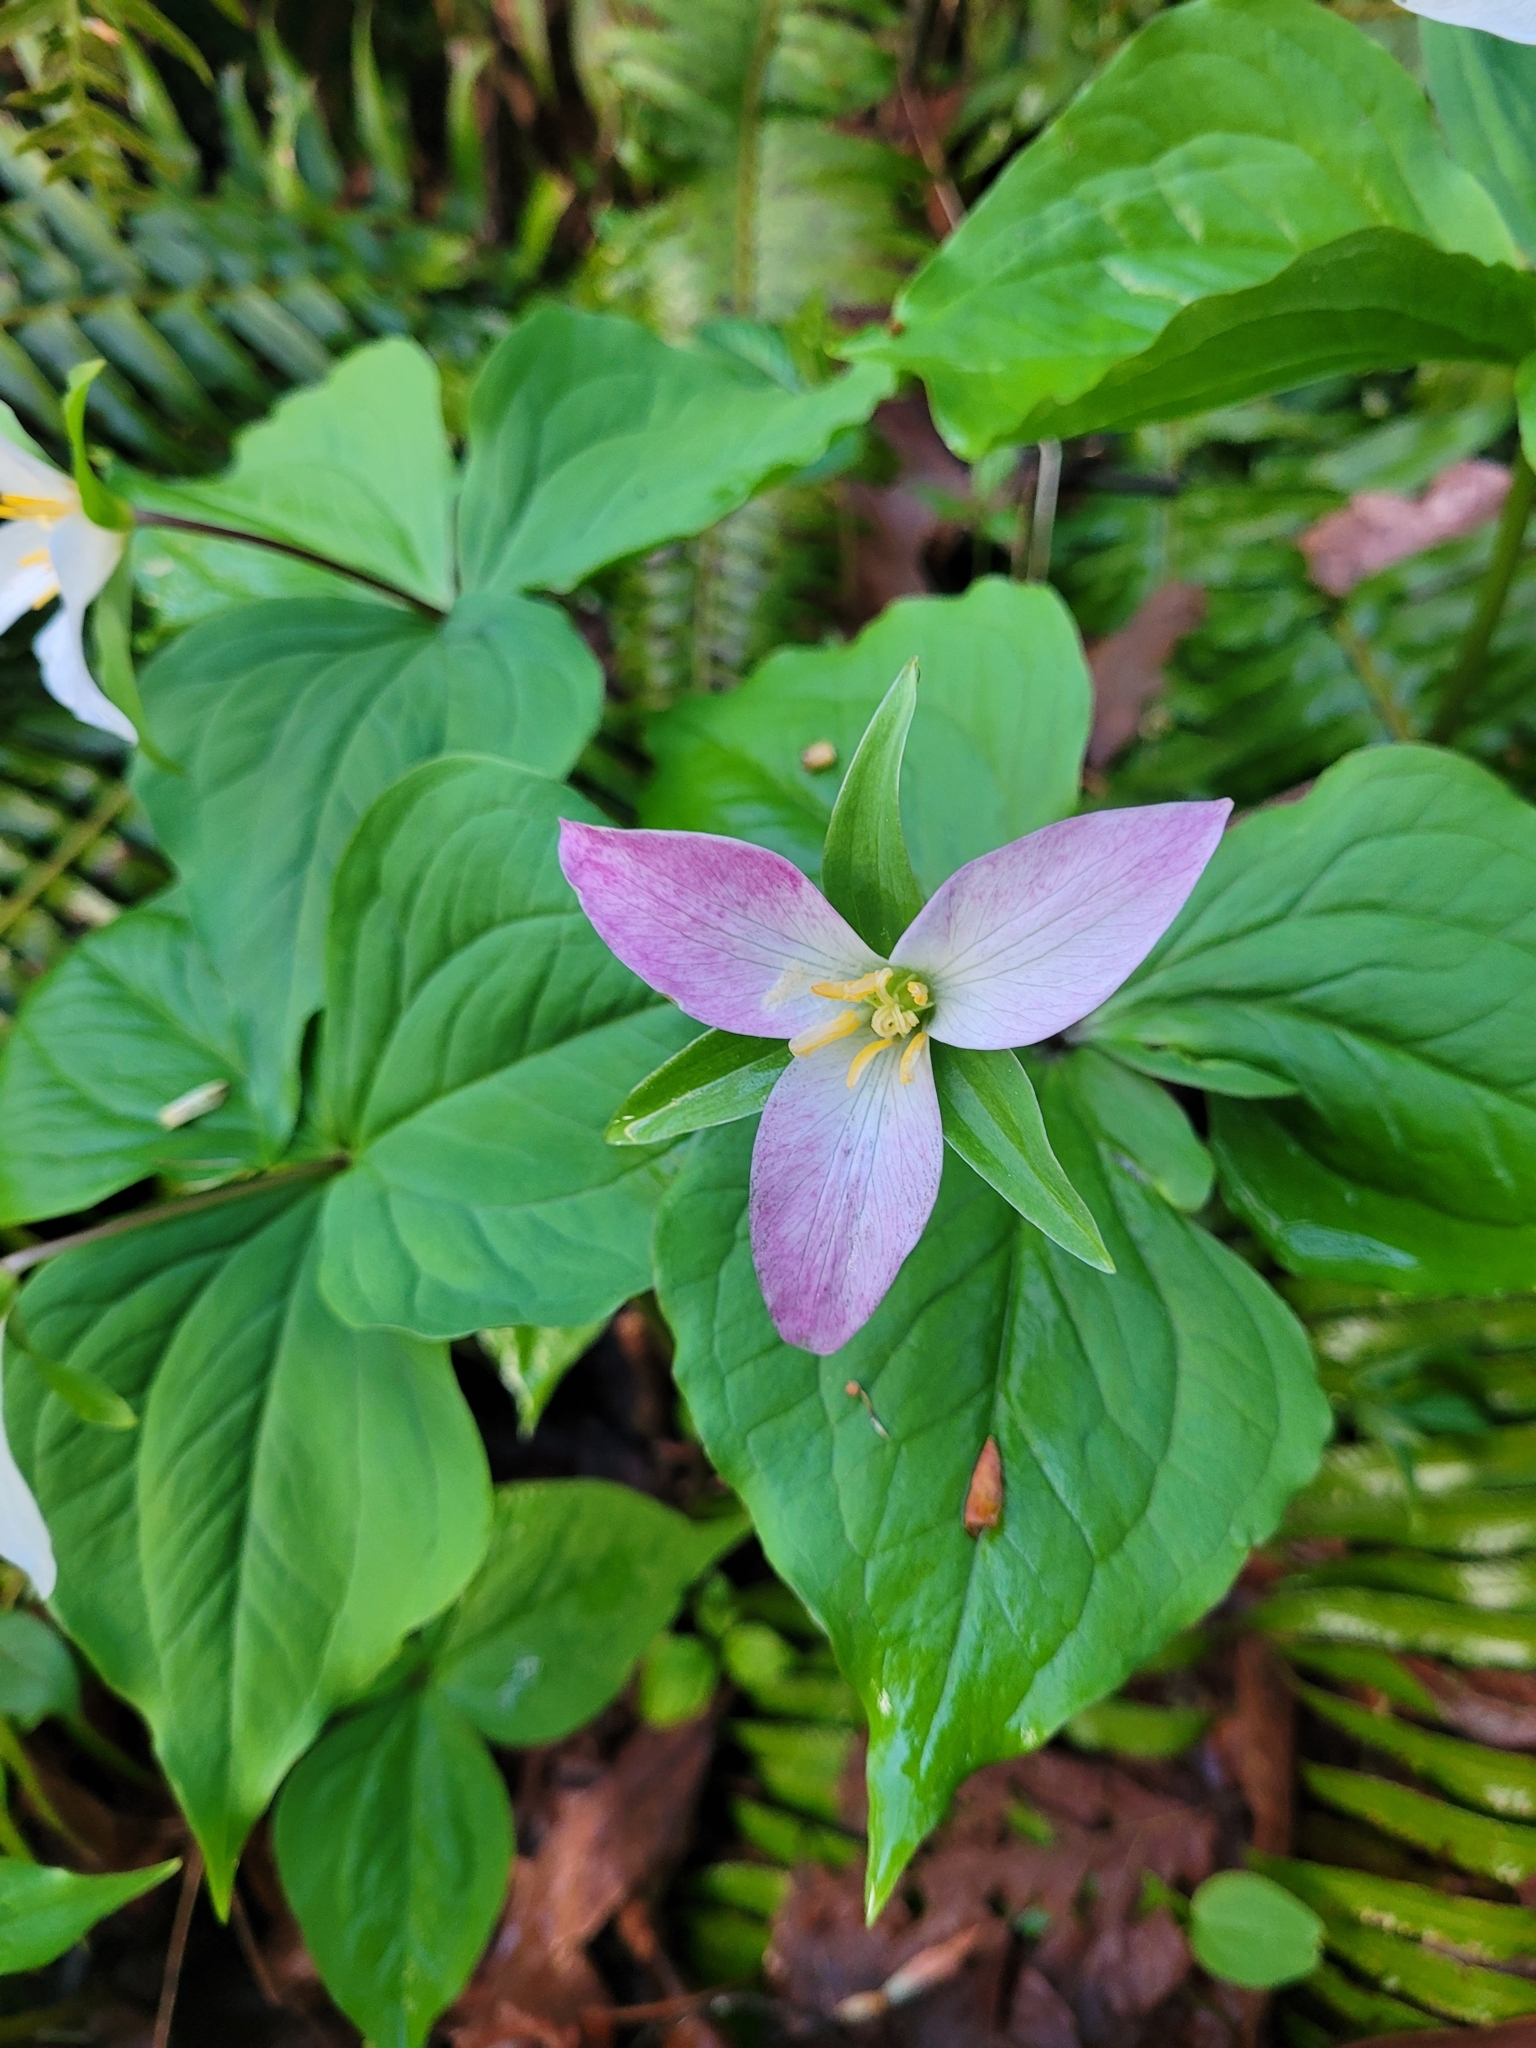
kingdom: Plantae
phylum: Tracheophyta
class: Liliopsida
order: Liliales
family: Melanthiaceae
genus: Trillium
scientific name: Trillium ovatum
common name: Pacific trillium
